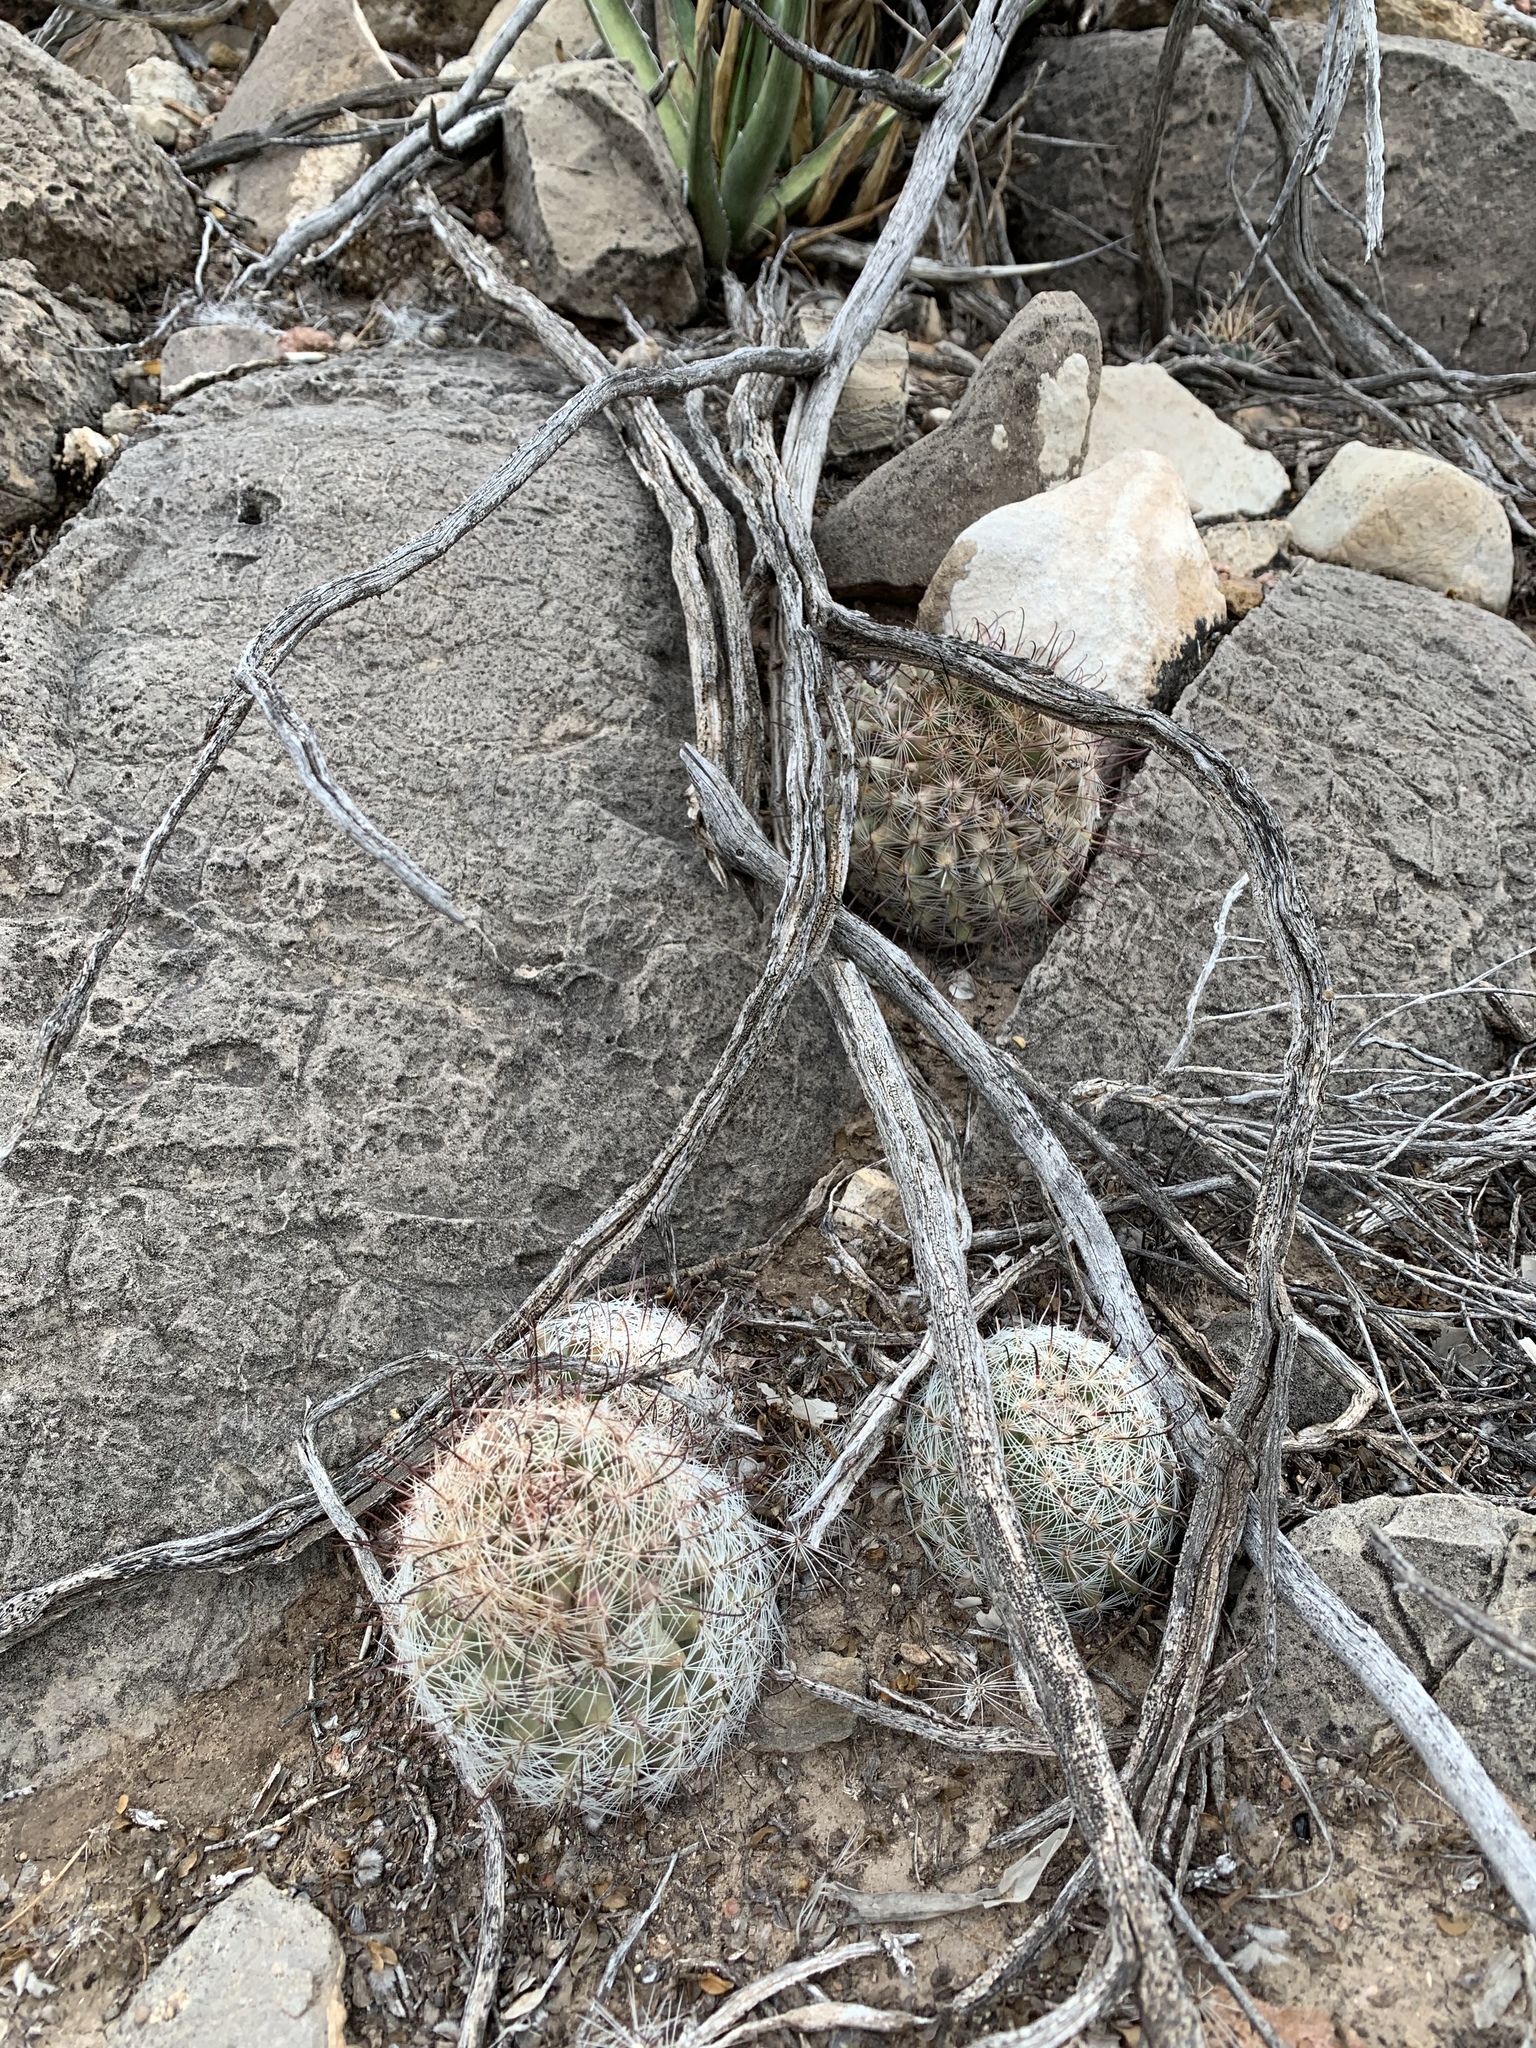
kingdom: Plantae
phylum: Tracheophyta
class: Magnoliopsida
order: Caryophyllales
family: Cactaceae
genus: Cochemiea
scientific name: Cochemiea grahamii
